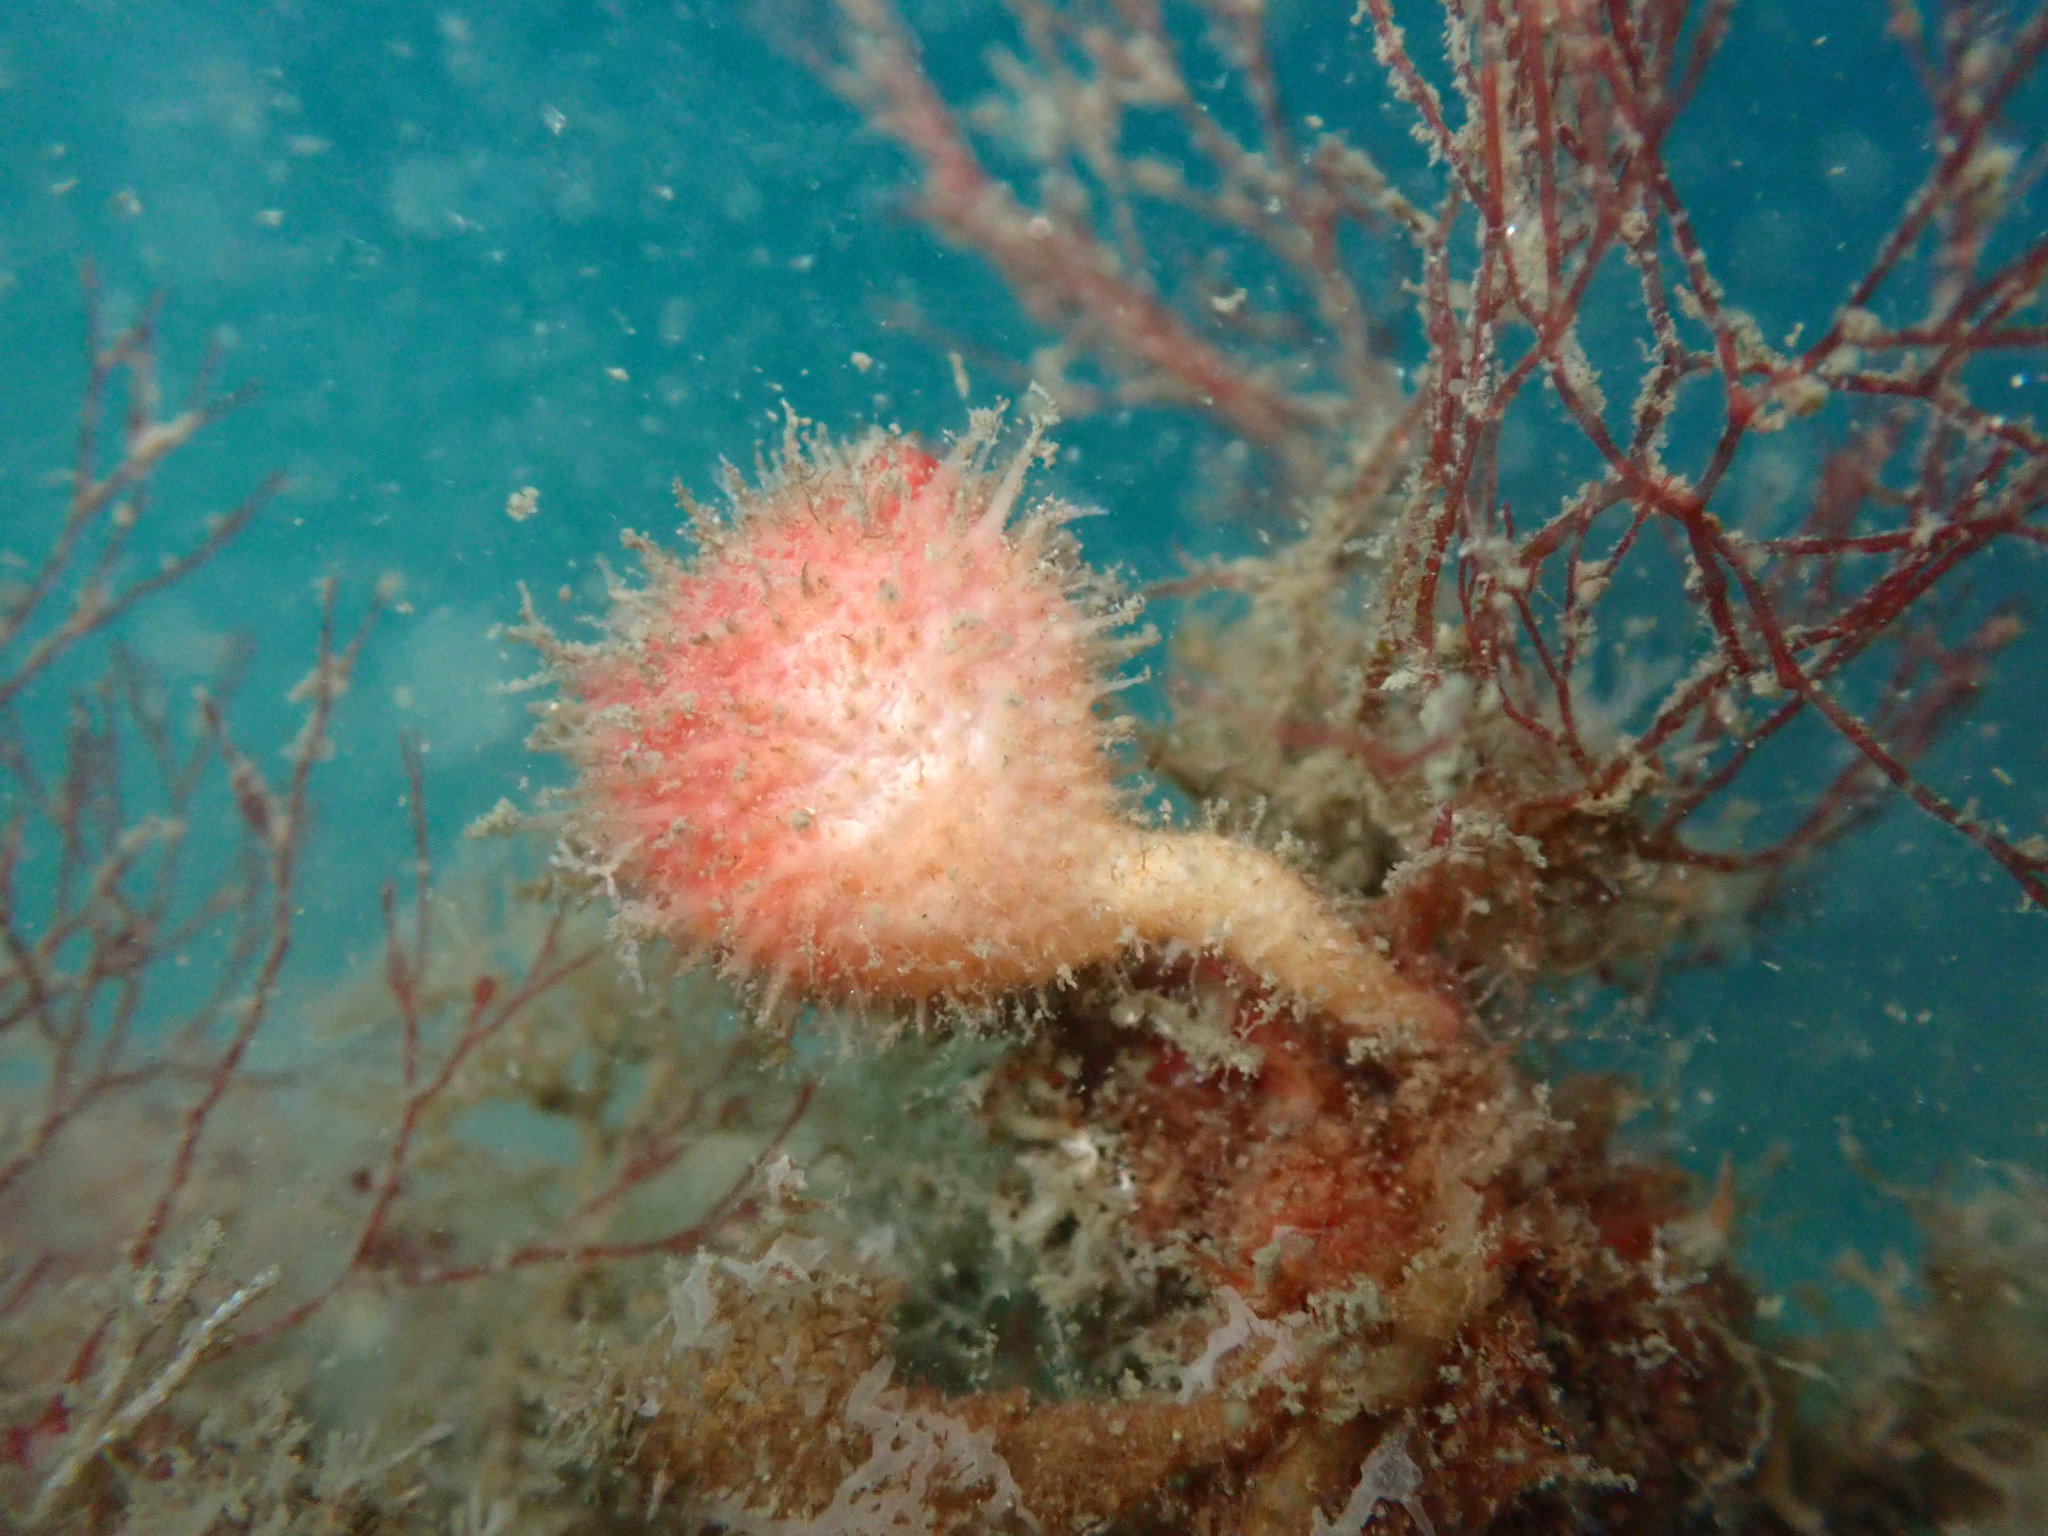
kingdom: Animalia
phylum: Chordata
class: Ascidiacea
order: Stolidobranchia
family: Pyuridae
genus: Boltenia
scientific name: Boltenia villosa
